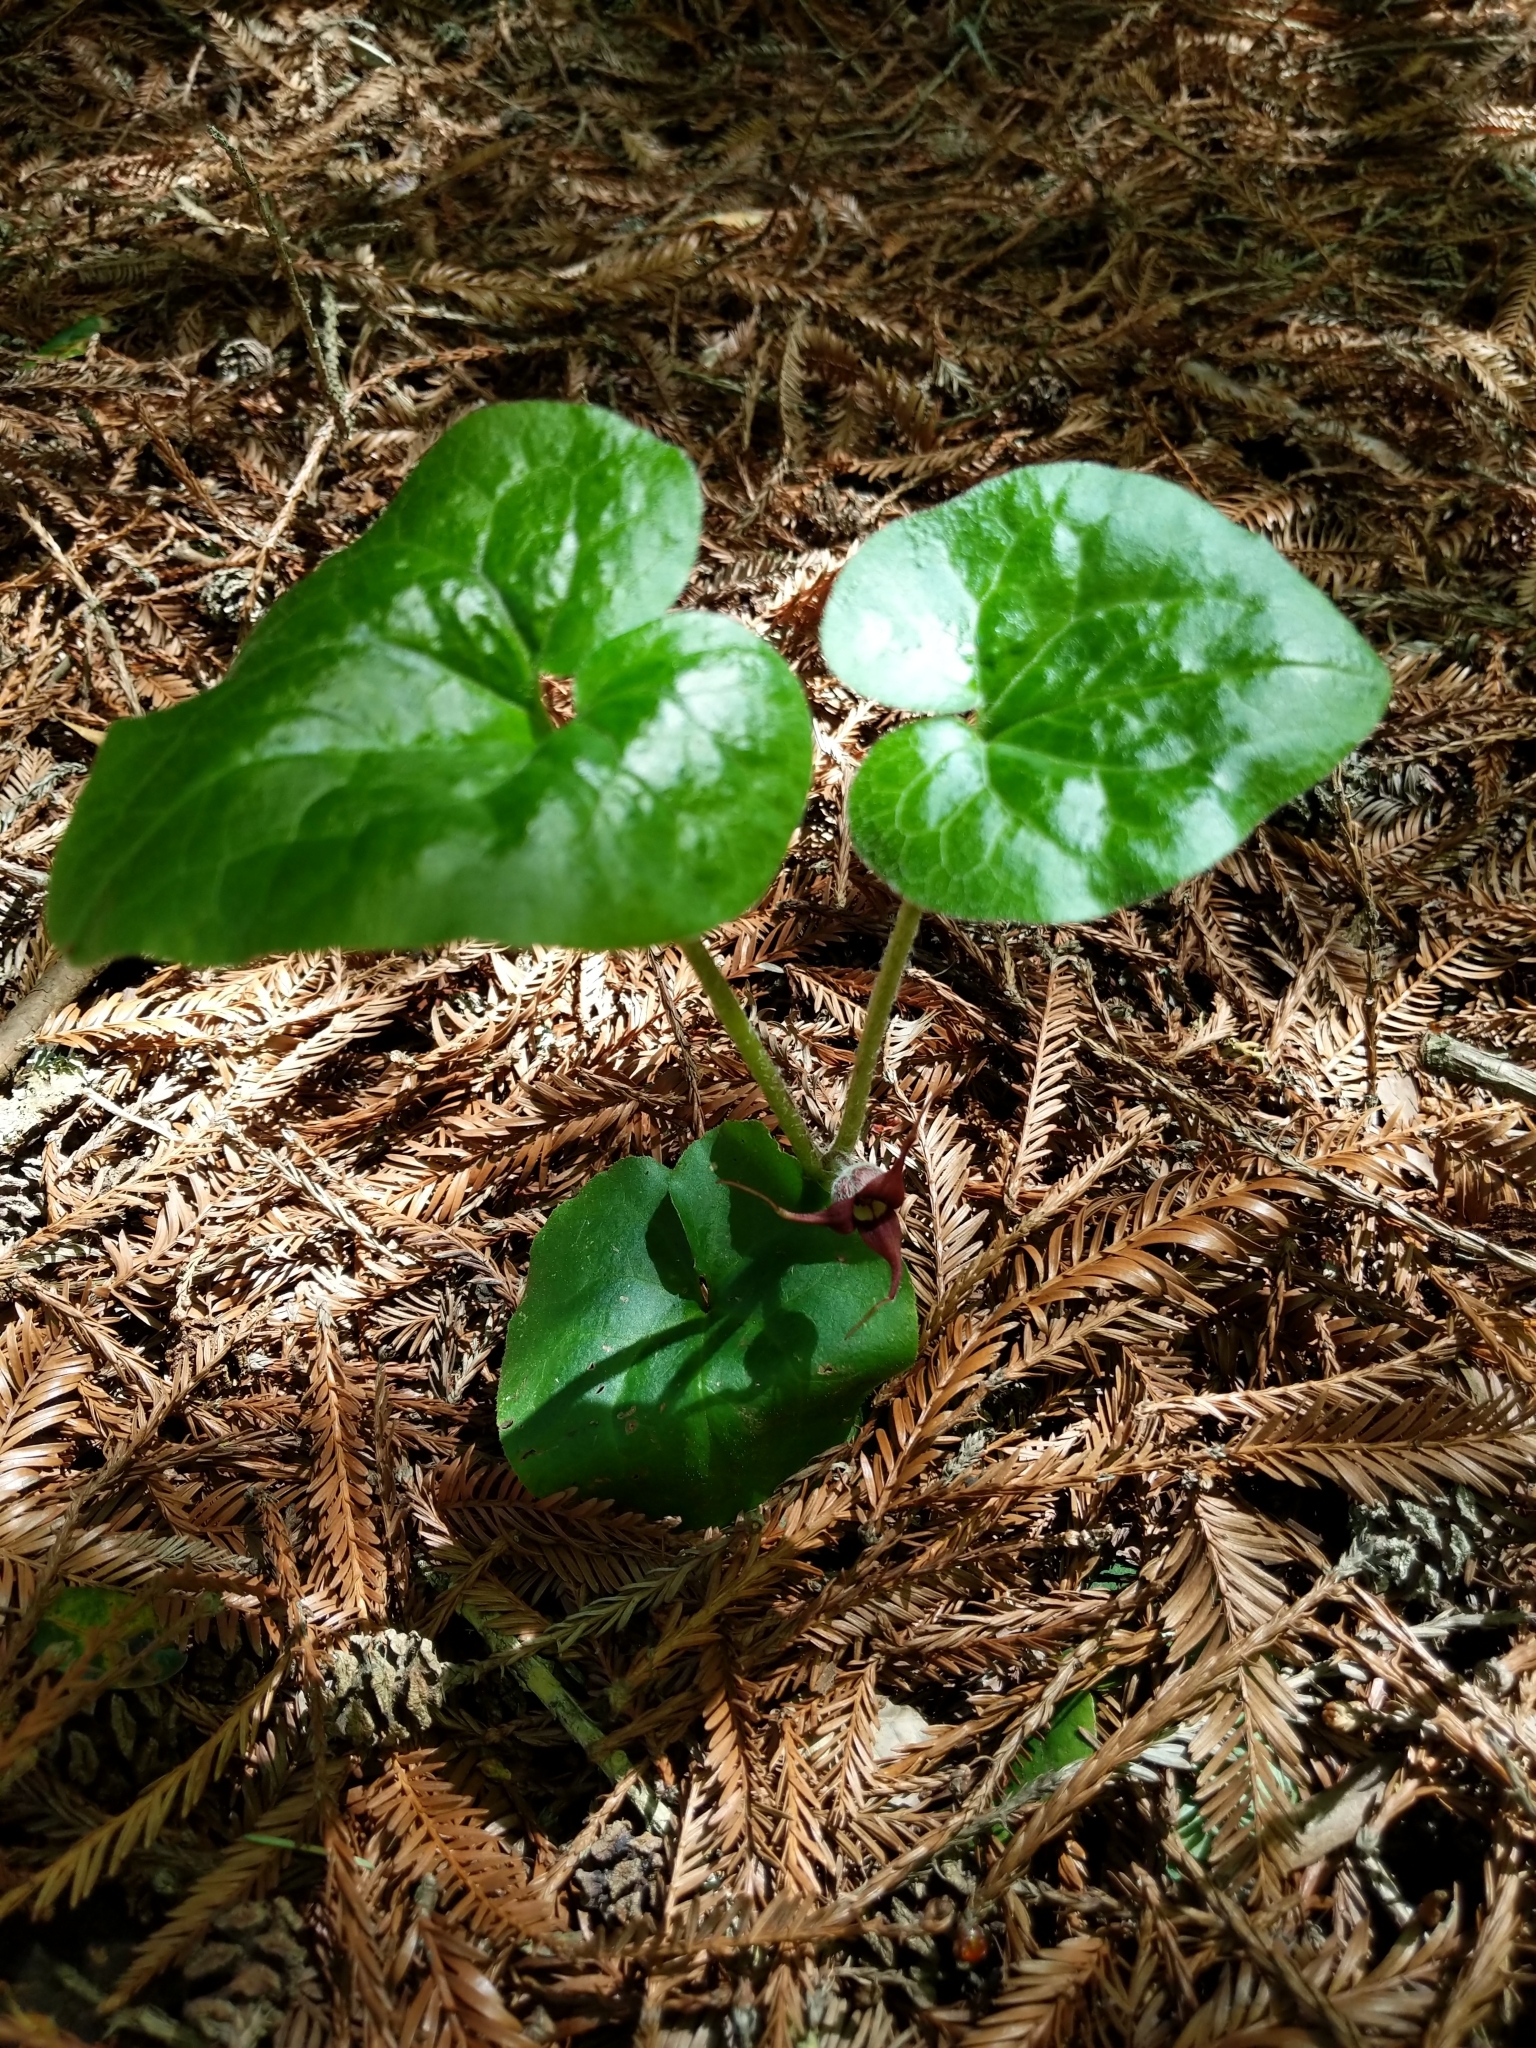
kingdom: Plantae
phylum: Tracheophyta
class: Magnoliopsida
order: Piperales
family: Aristolochiaceae
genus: Asarum
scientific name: Asarum caudatum
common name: Wild ginger
